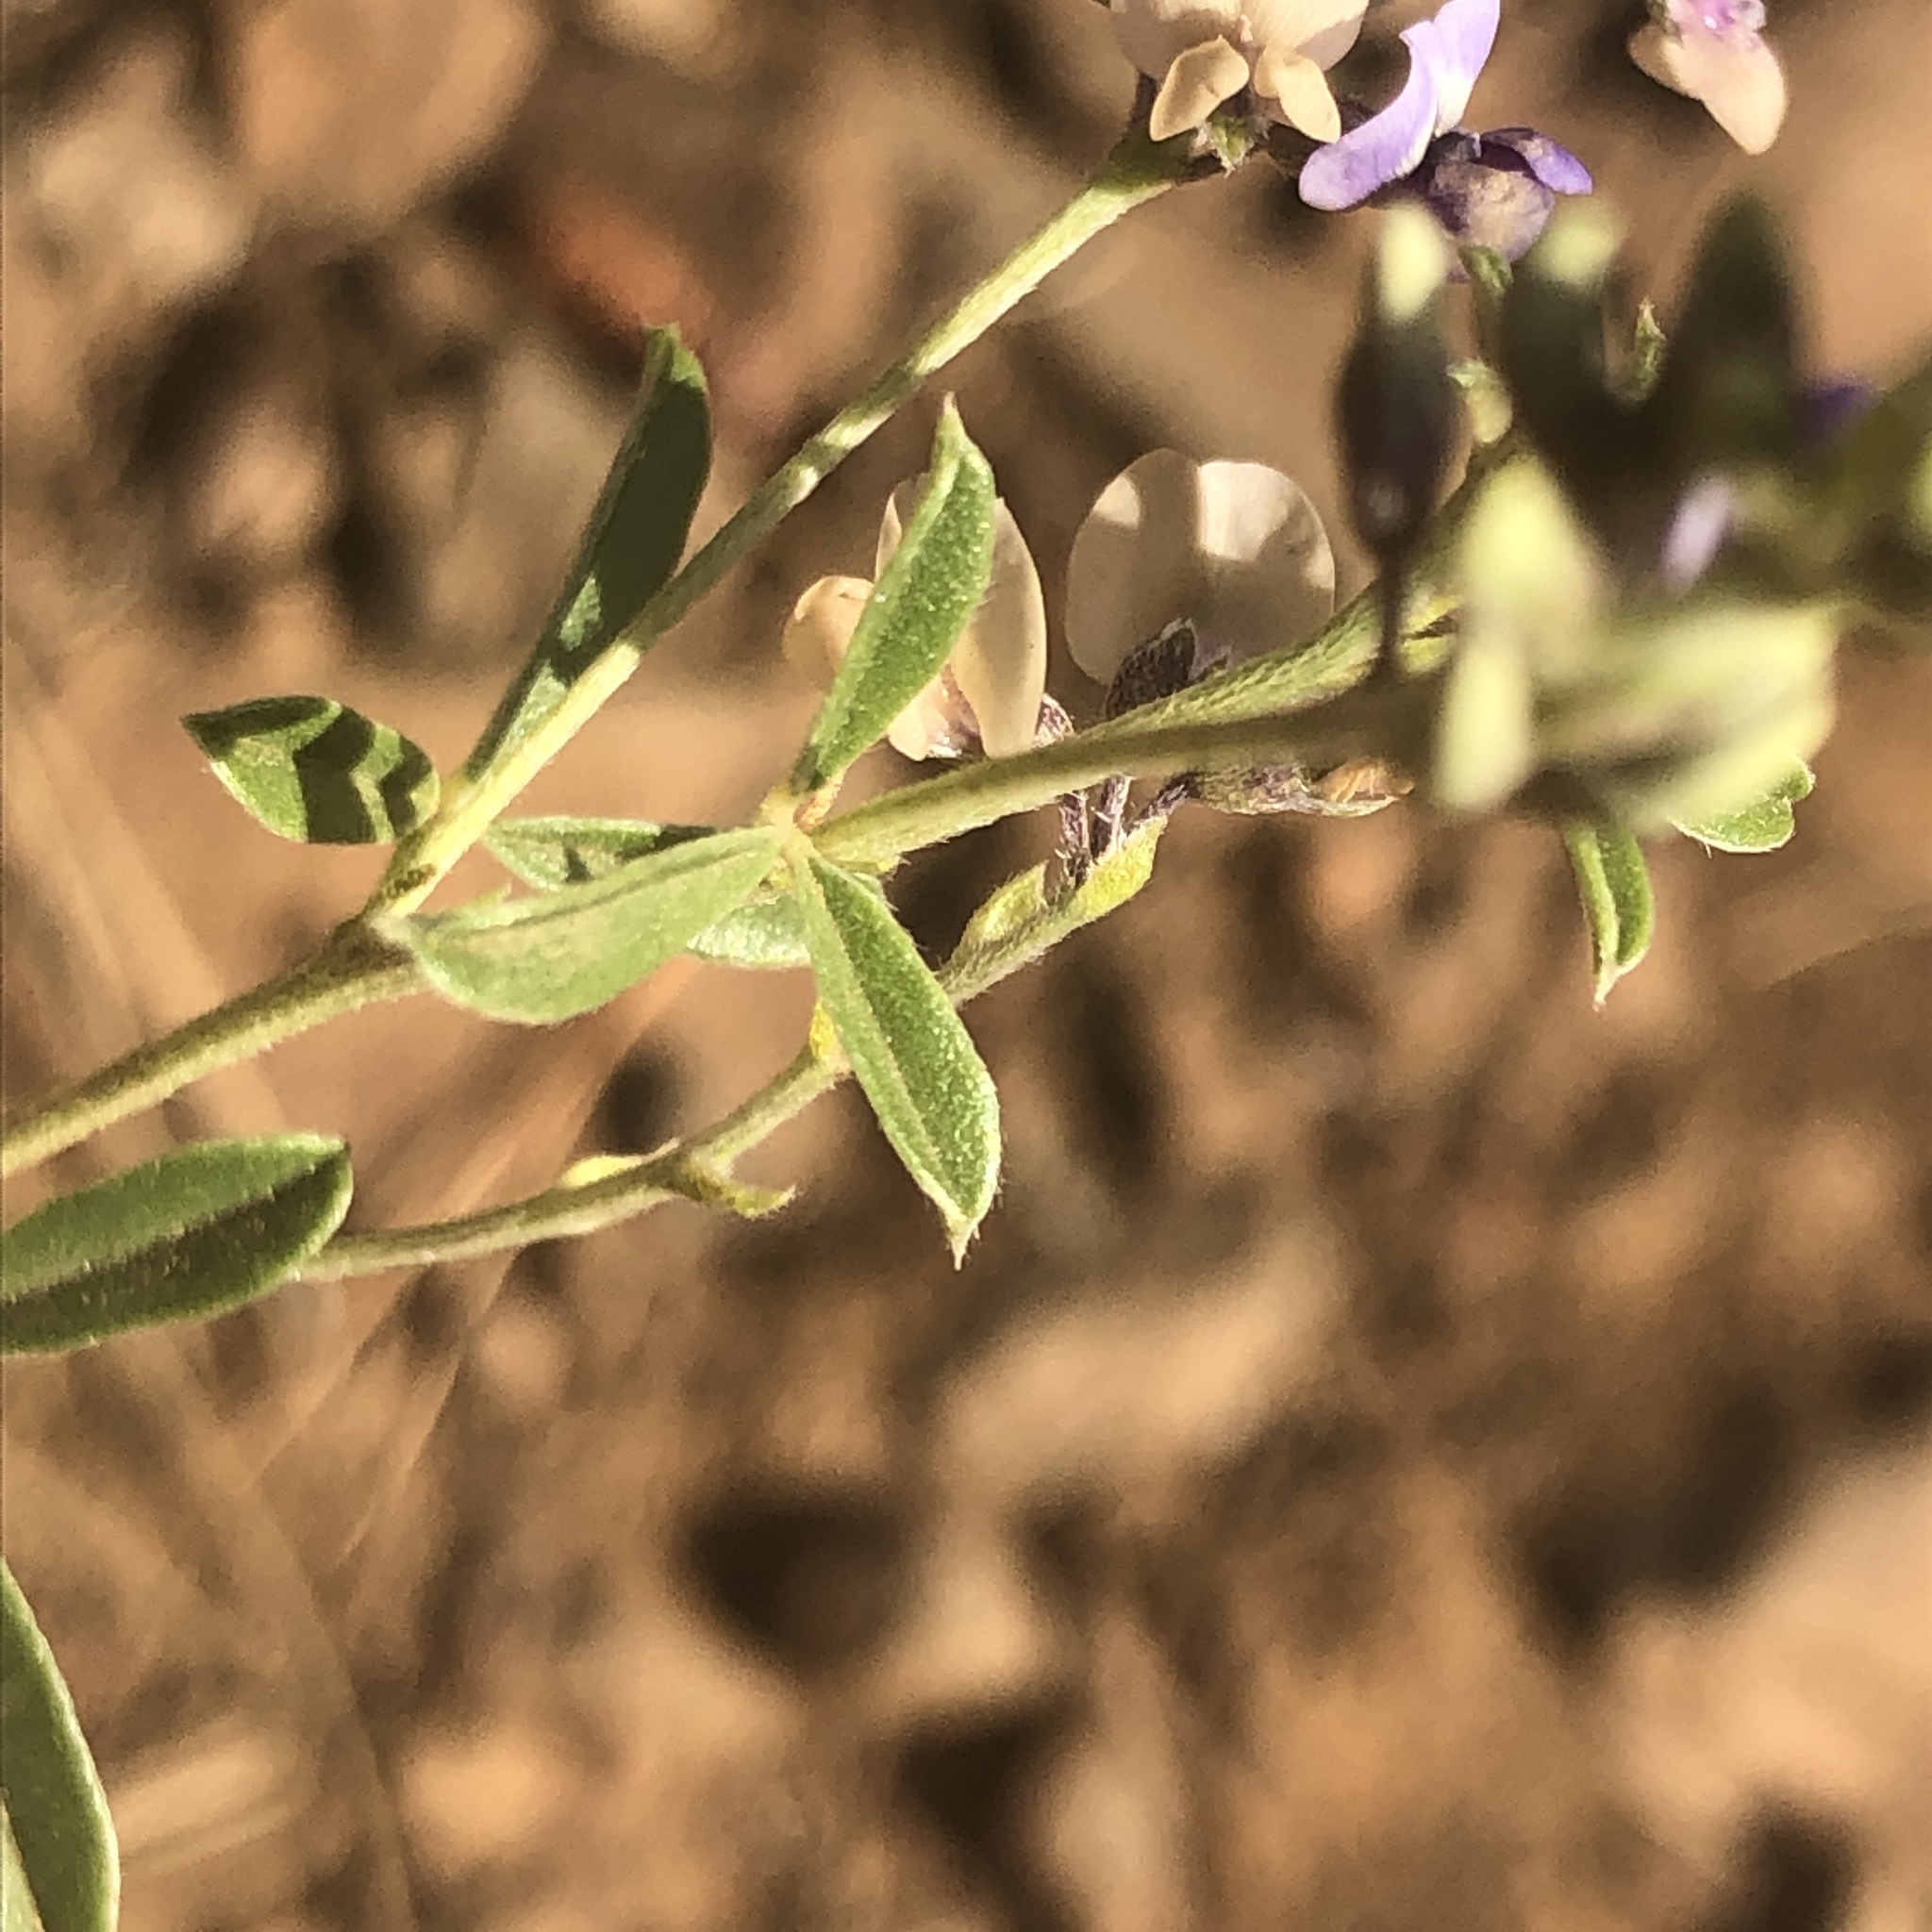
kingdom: Plantae
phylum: Tracheophyta
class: Magnoliopsida
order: Fabales
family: Fabaceae
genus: Pediomelum
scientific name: Pediomelum tenuiflorum
